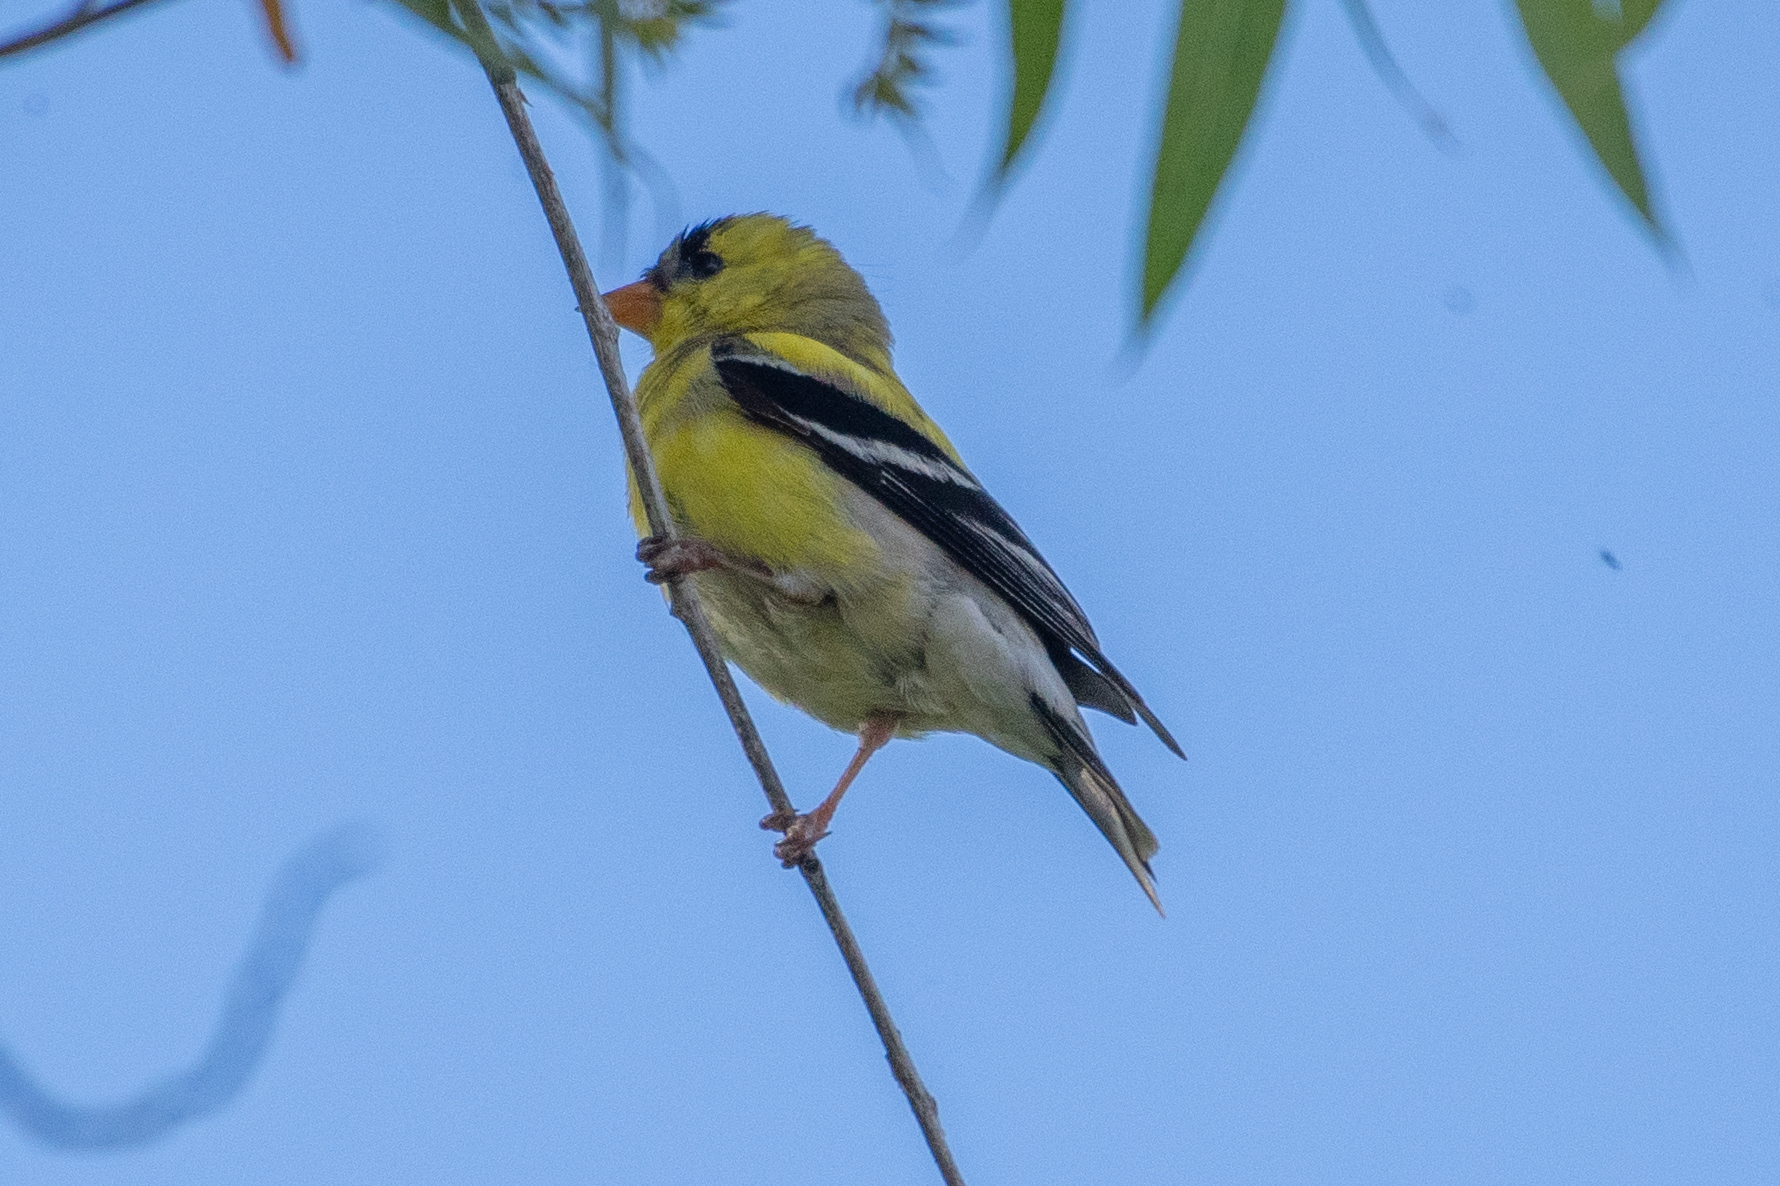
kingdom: Animalia
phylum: Chordata
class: Aves
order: Passeriformes
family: Fringillidae
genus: Spinus
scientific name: Spinus tristis
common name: American goldfinch
